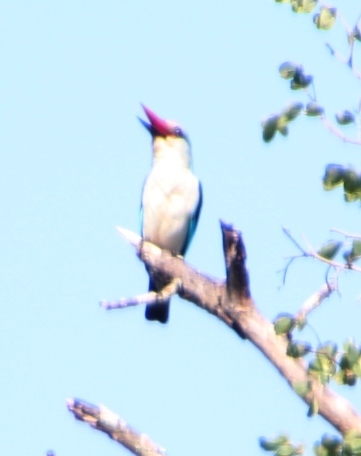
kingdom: Animalia
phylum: Chordata
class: Aves
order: Coraciiformes
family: Alcedinidae
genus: Halcyon
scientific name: Halcyon senegalensis
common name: Woodland kingfisher
